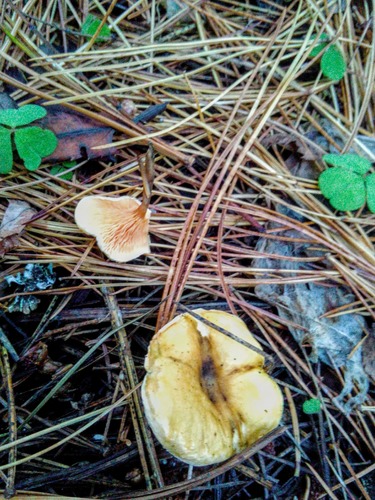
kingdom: Fungi
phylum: Basidiomycota
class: Agaricomycetes
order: Boletales
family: Hygrophoropsidaceae
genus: Hygrophoropsis
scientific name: Hygrophoropsis aurantiaca
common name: False chanterelle
